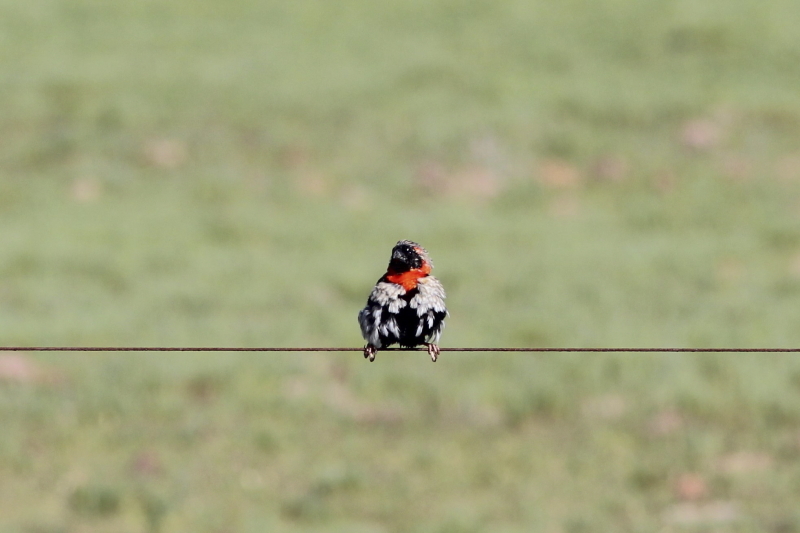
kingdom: Animalia
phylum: Chordata
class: Aves
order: Passeriformes
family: Ploceidae
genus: Euplectes
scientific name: Euplectes orix
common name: Southern red bishop
